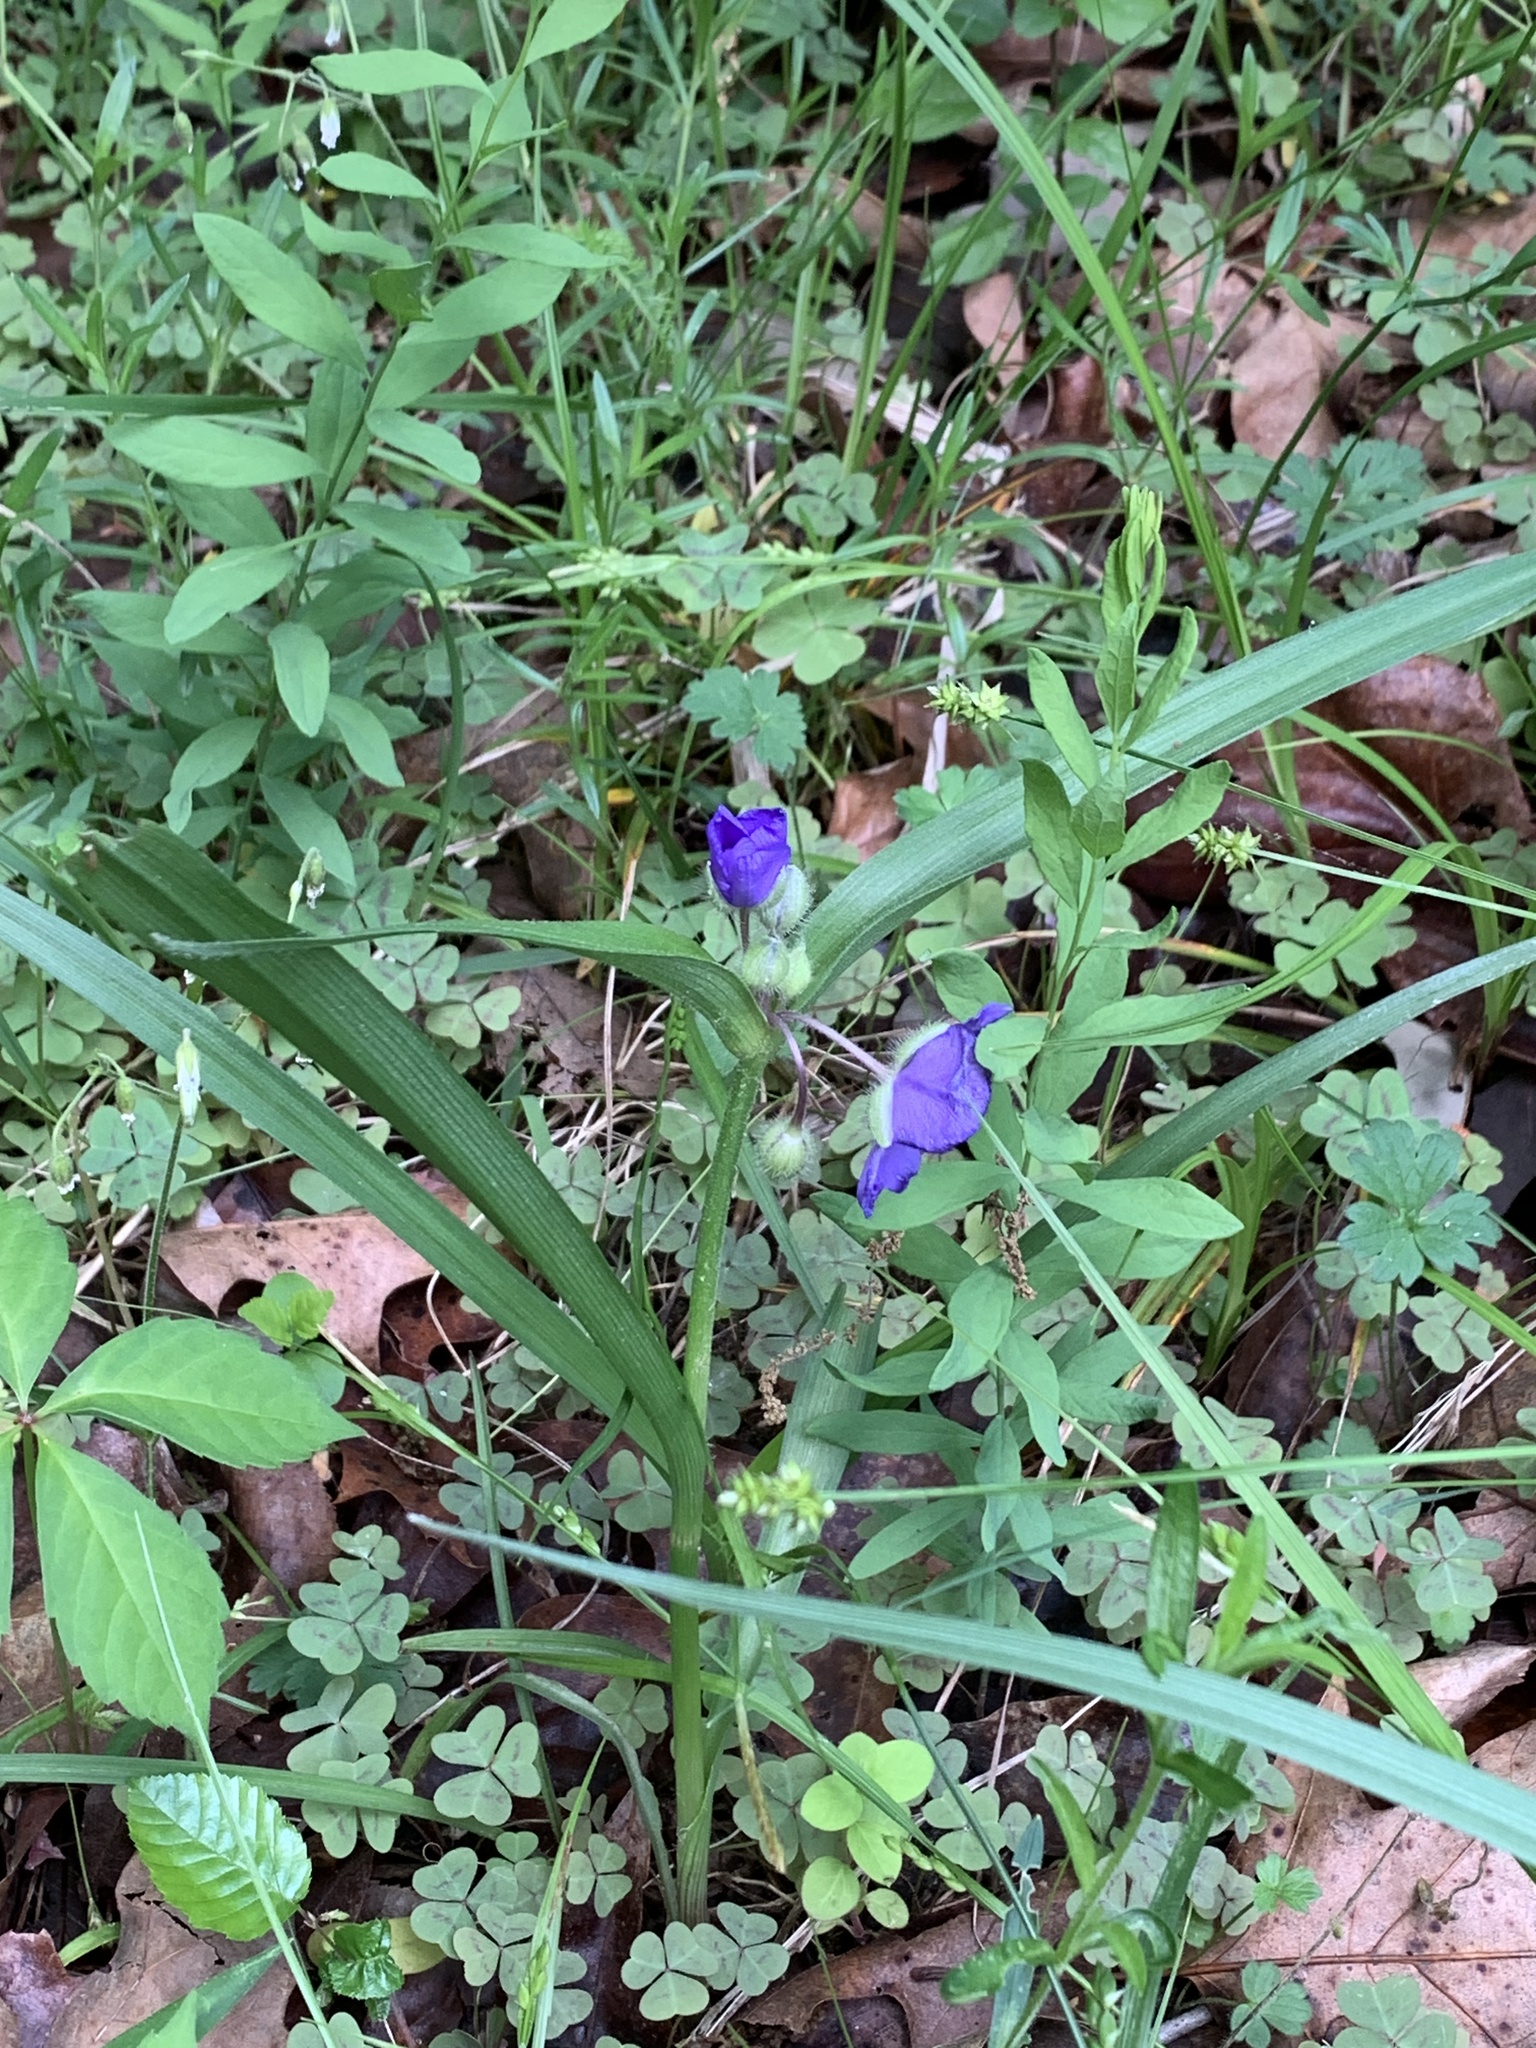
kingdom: Plantae
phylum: Tracheophyta
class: Liliopsida
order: Commelinales
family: Commelinaceae
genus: Tradescantia
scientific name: Tradescantia virginiana
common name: Spiderwort
